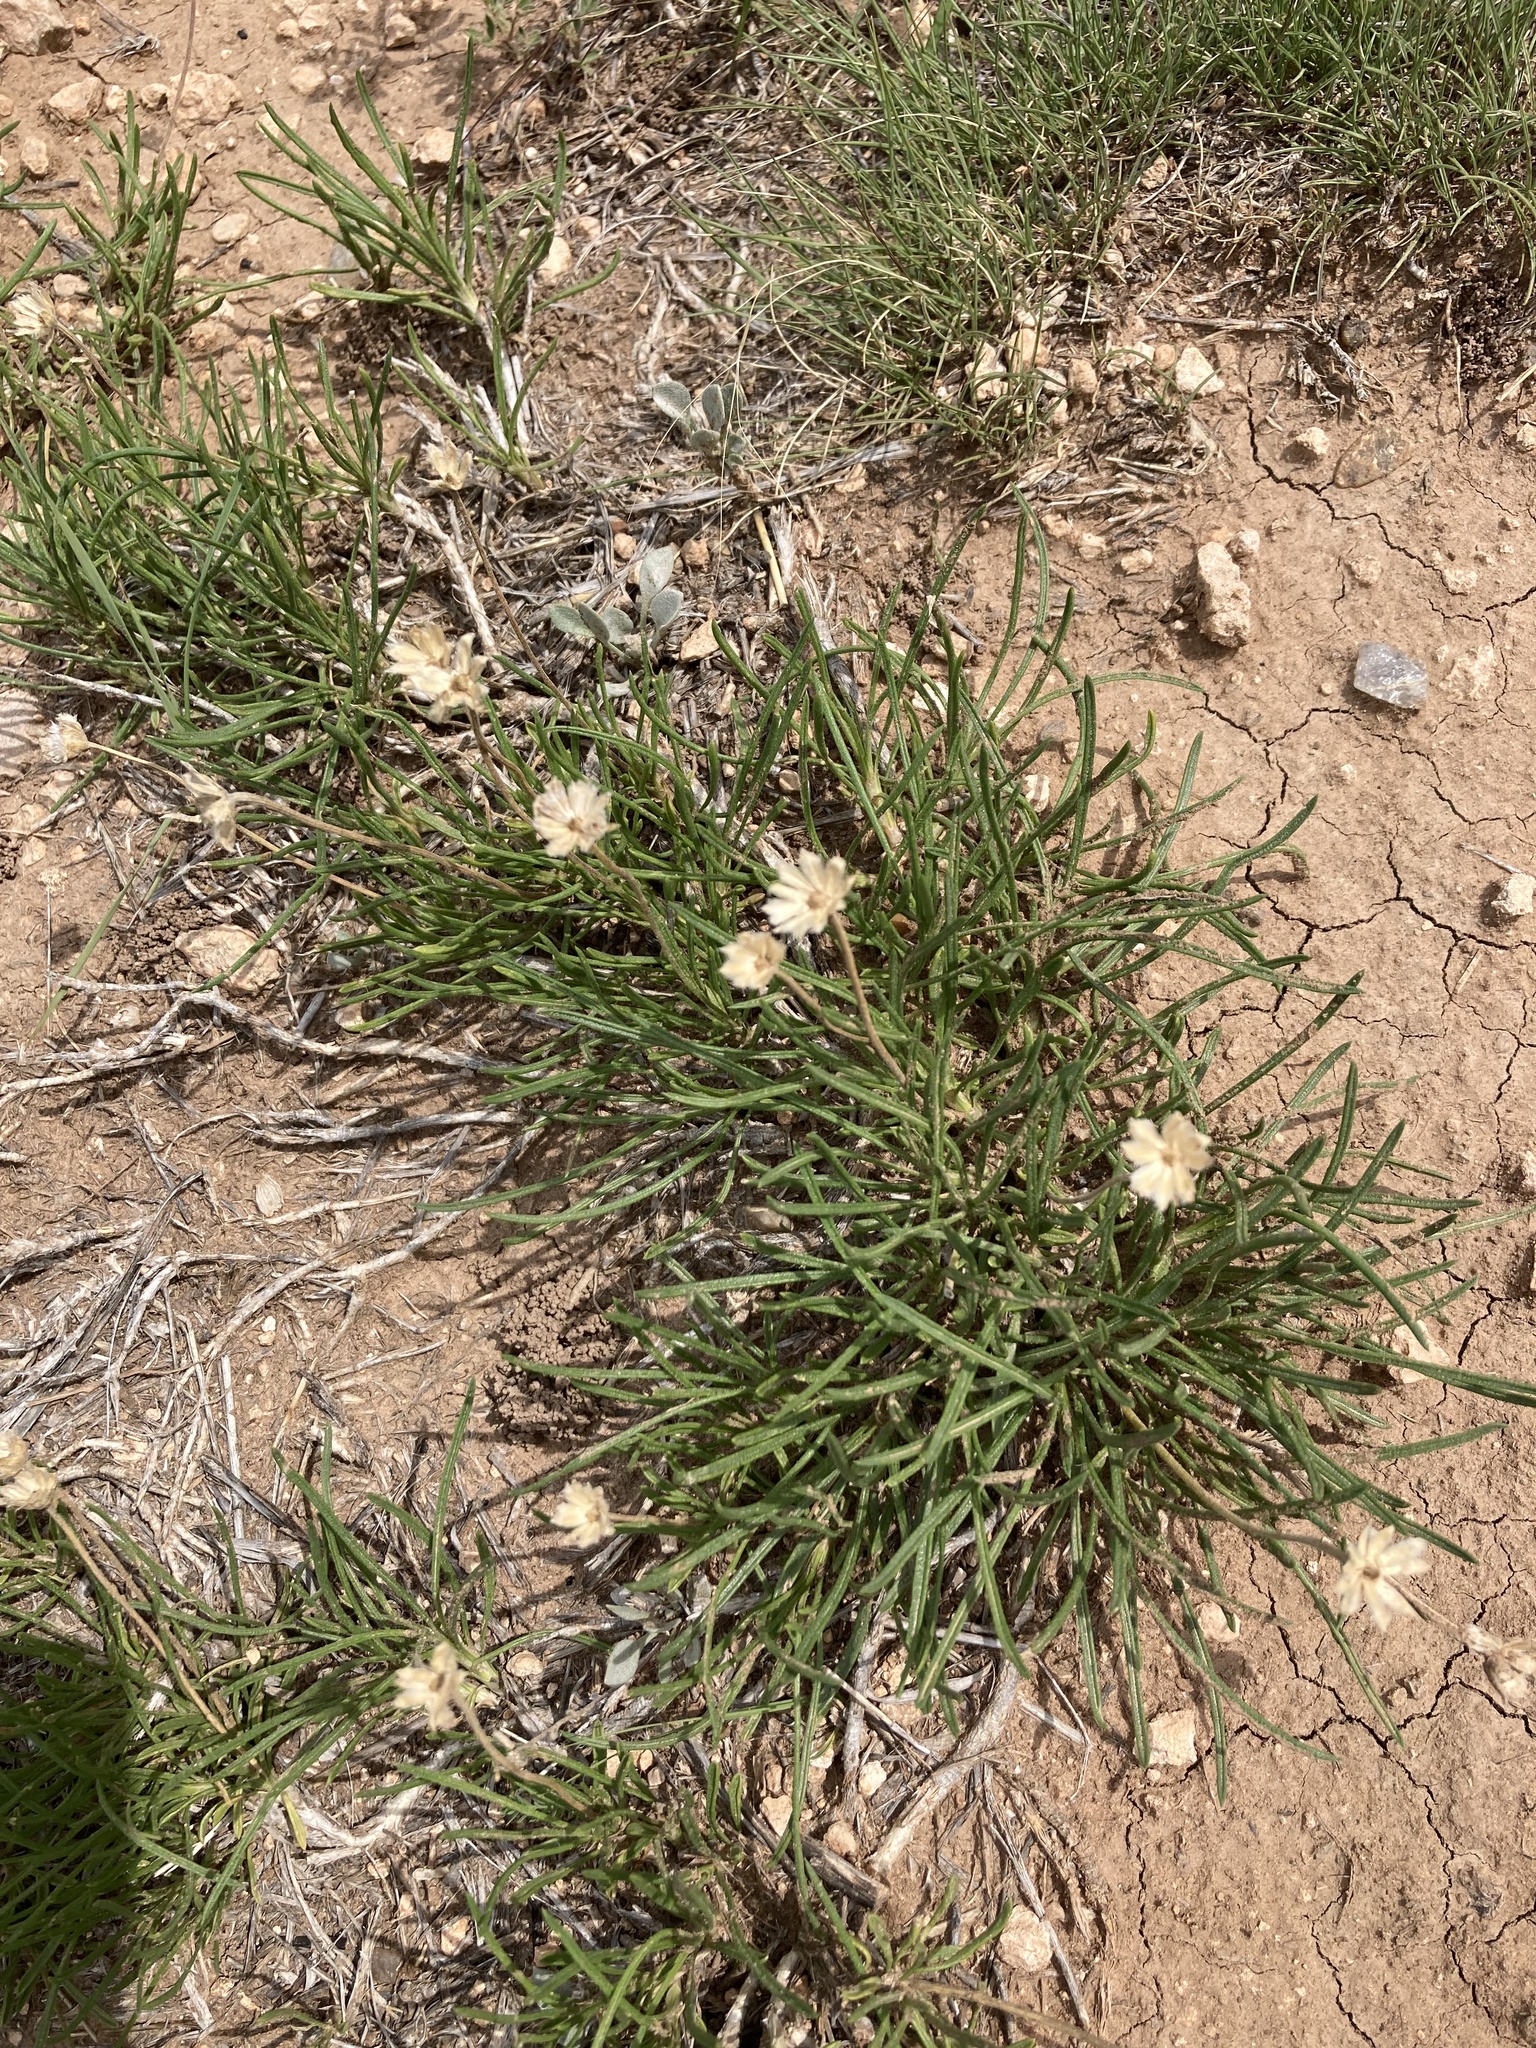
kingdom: Plantae
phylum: Tracheophyta
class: Magnoliopsida
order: Asterales
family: Asteraceae
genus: Tetraneuris
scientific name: Tetraneuris scaposa
